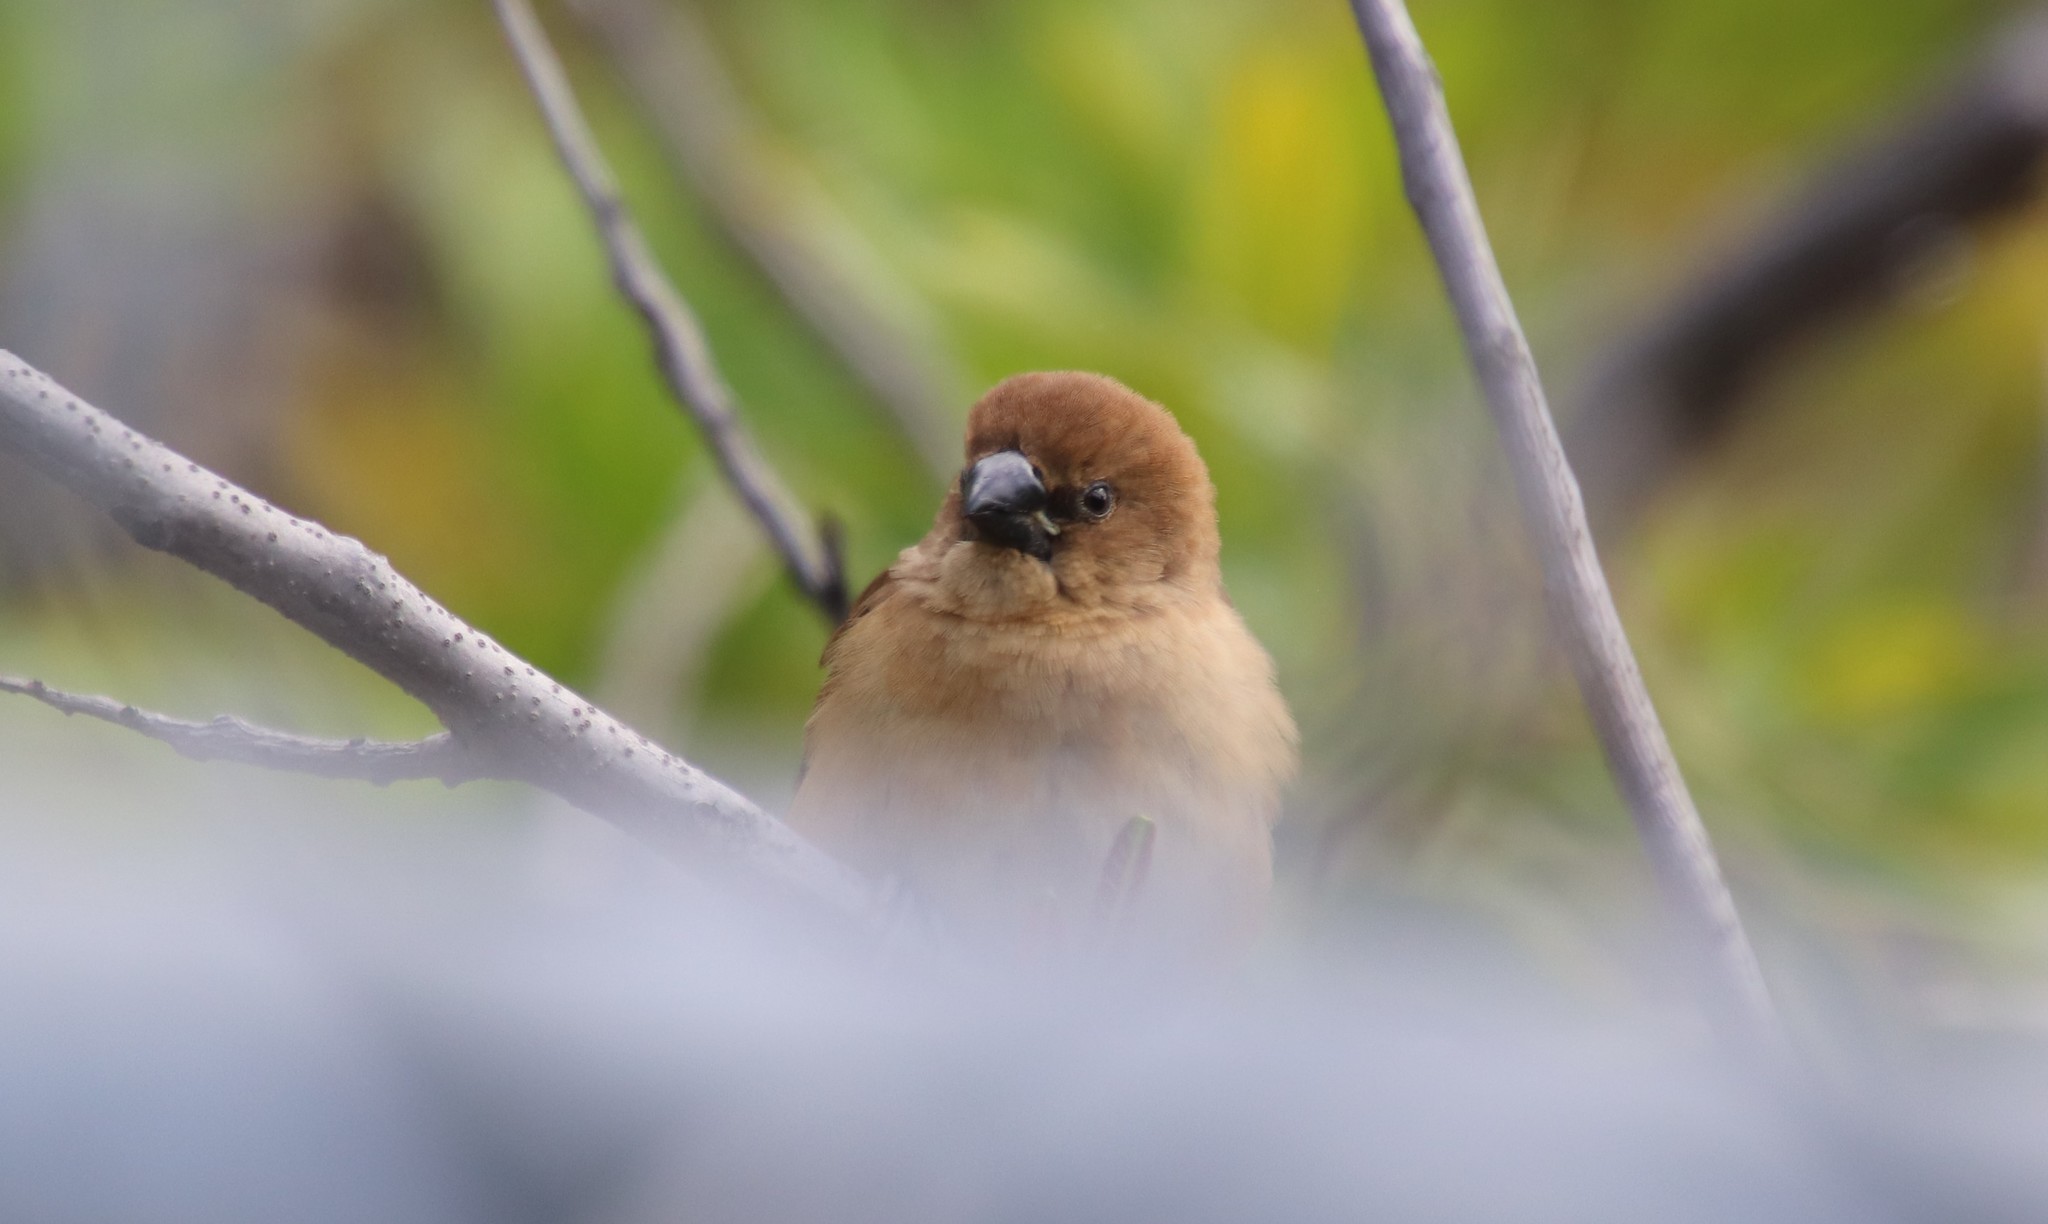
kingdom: Animalia
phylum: Chordata
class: Aves
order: Passeriformes
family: Estrildidae
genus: Lonchura
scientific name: Lonchura punctulata
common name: Scaly-breasted munia
